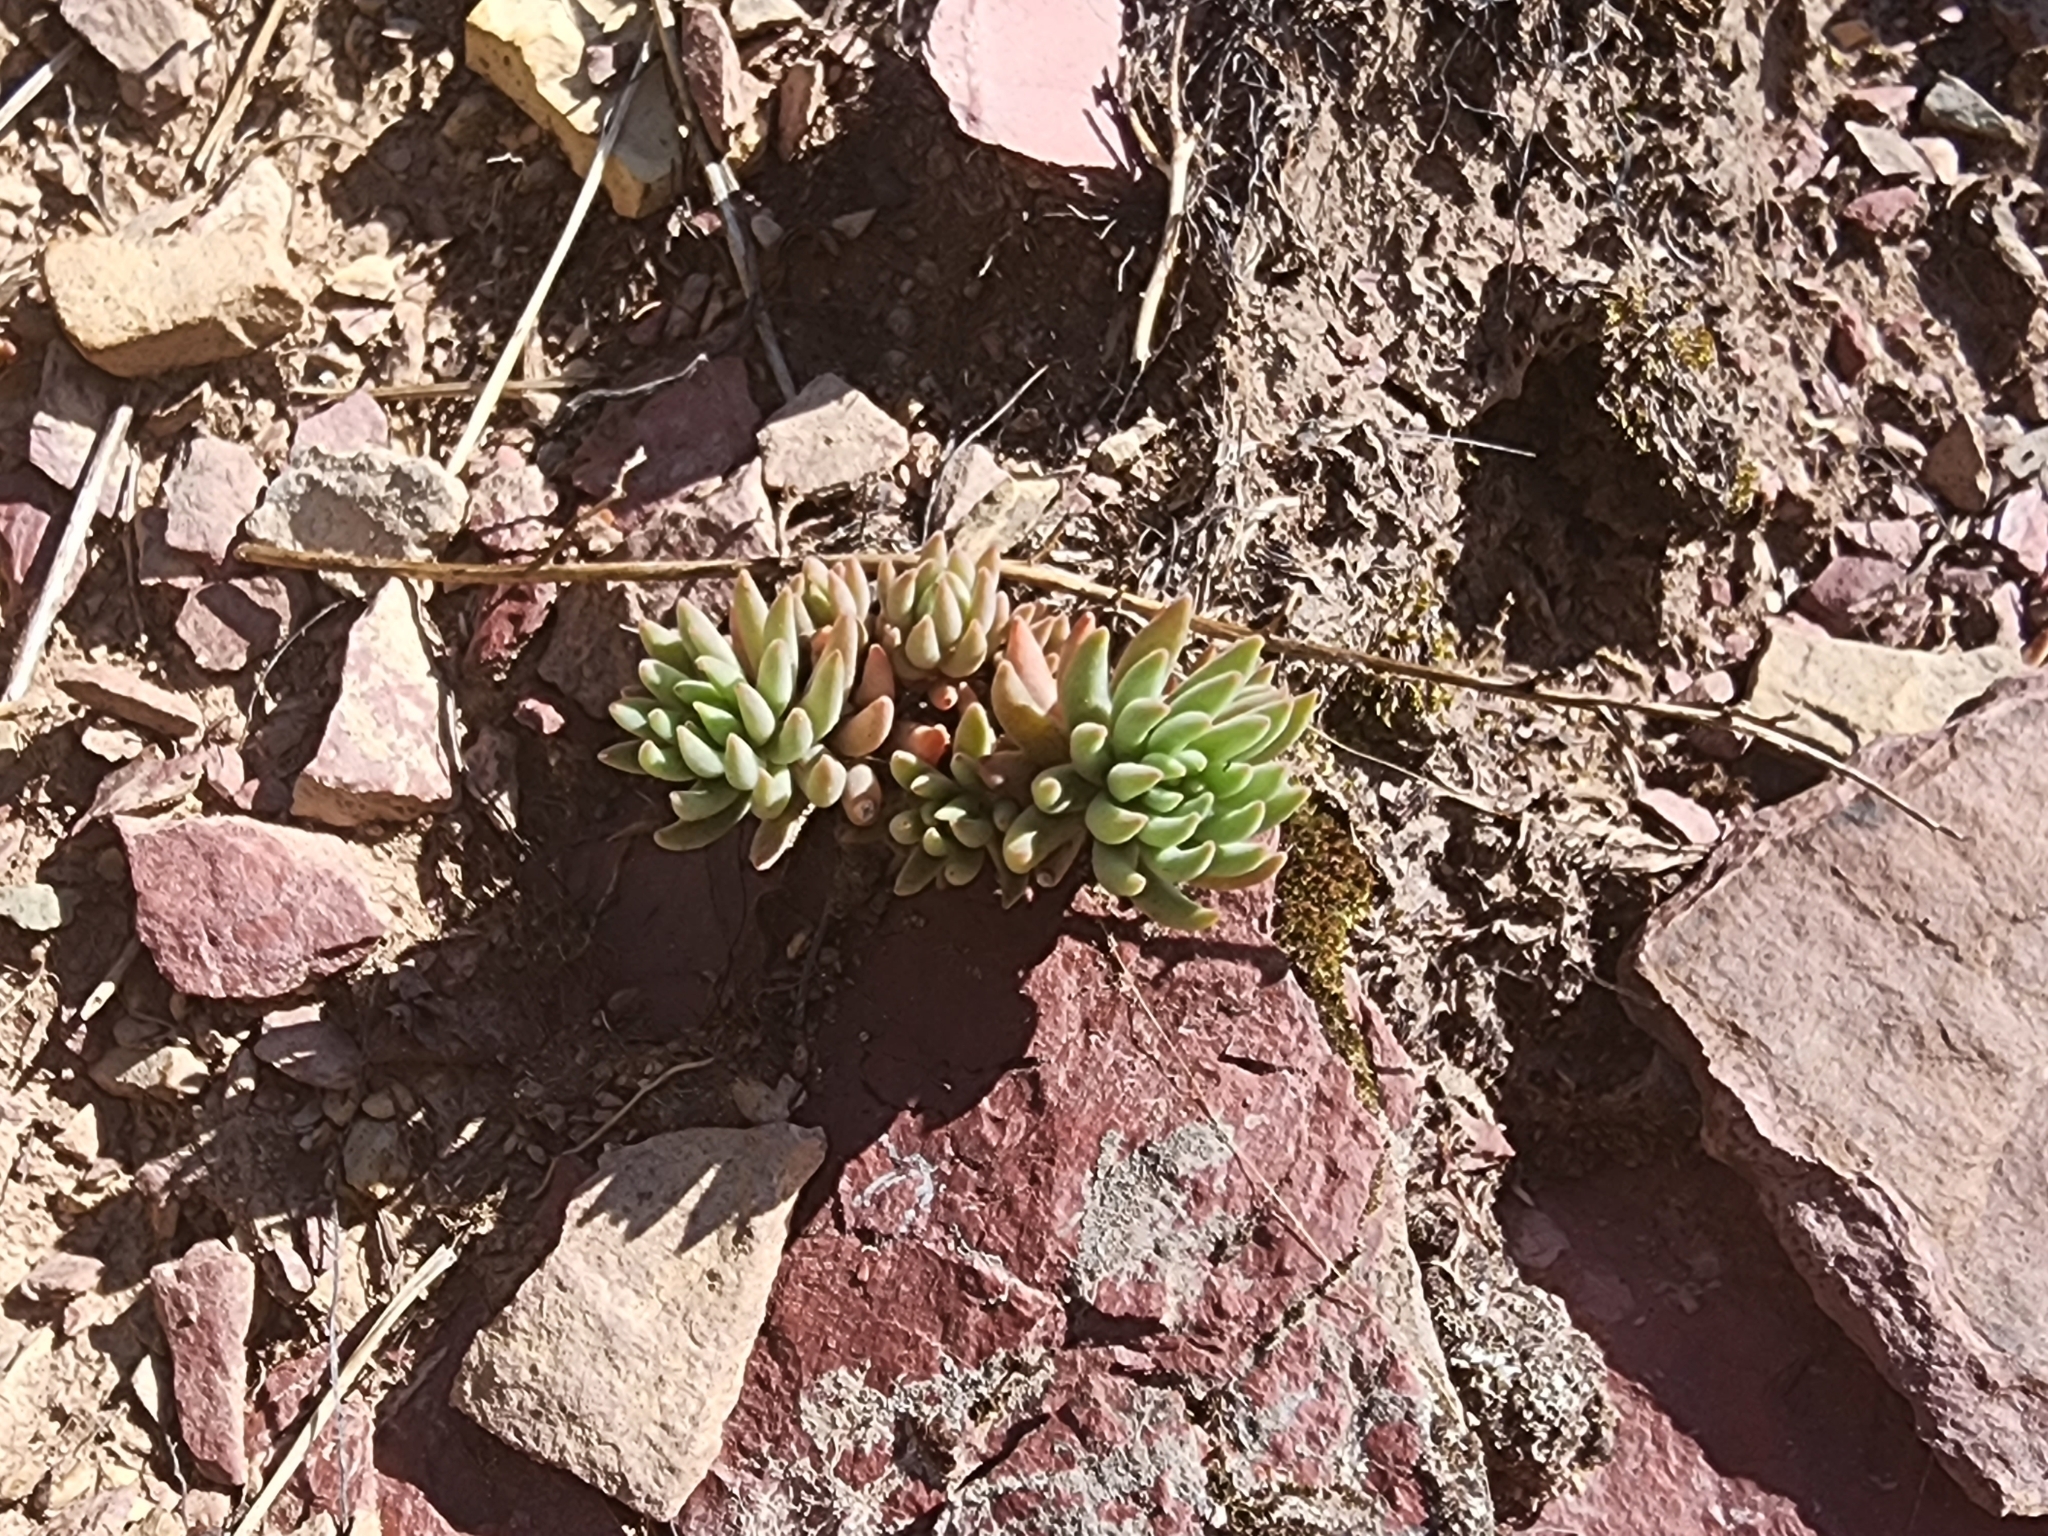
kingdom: Plantae
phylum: Tracheophyta
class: Magnoliopsida
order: Saxifragales
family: Crassulaceae
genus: Sedum
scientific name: Sedum lanceolatum
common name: Common stonecrop
